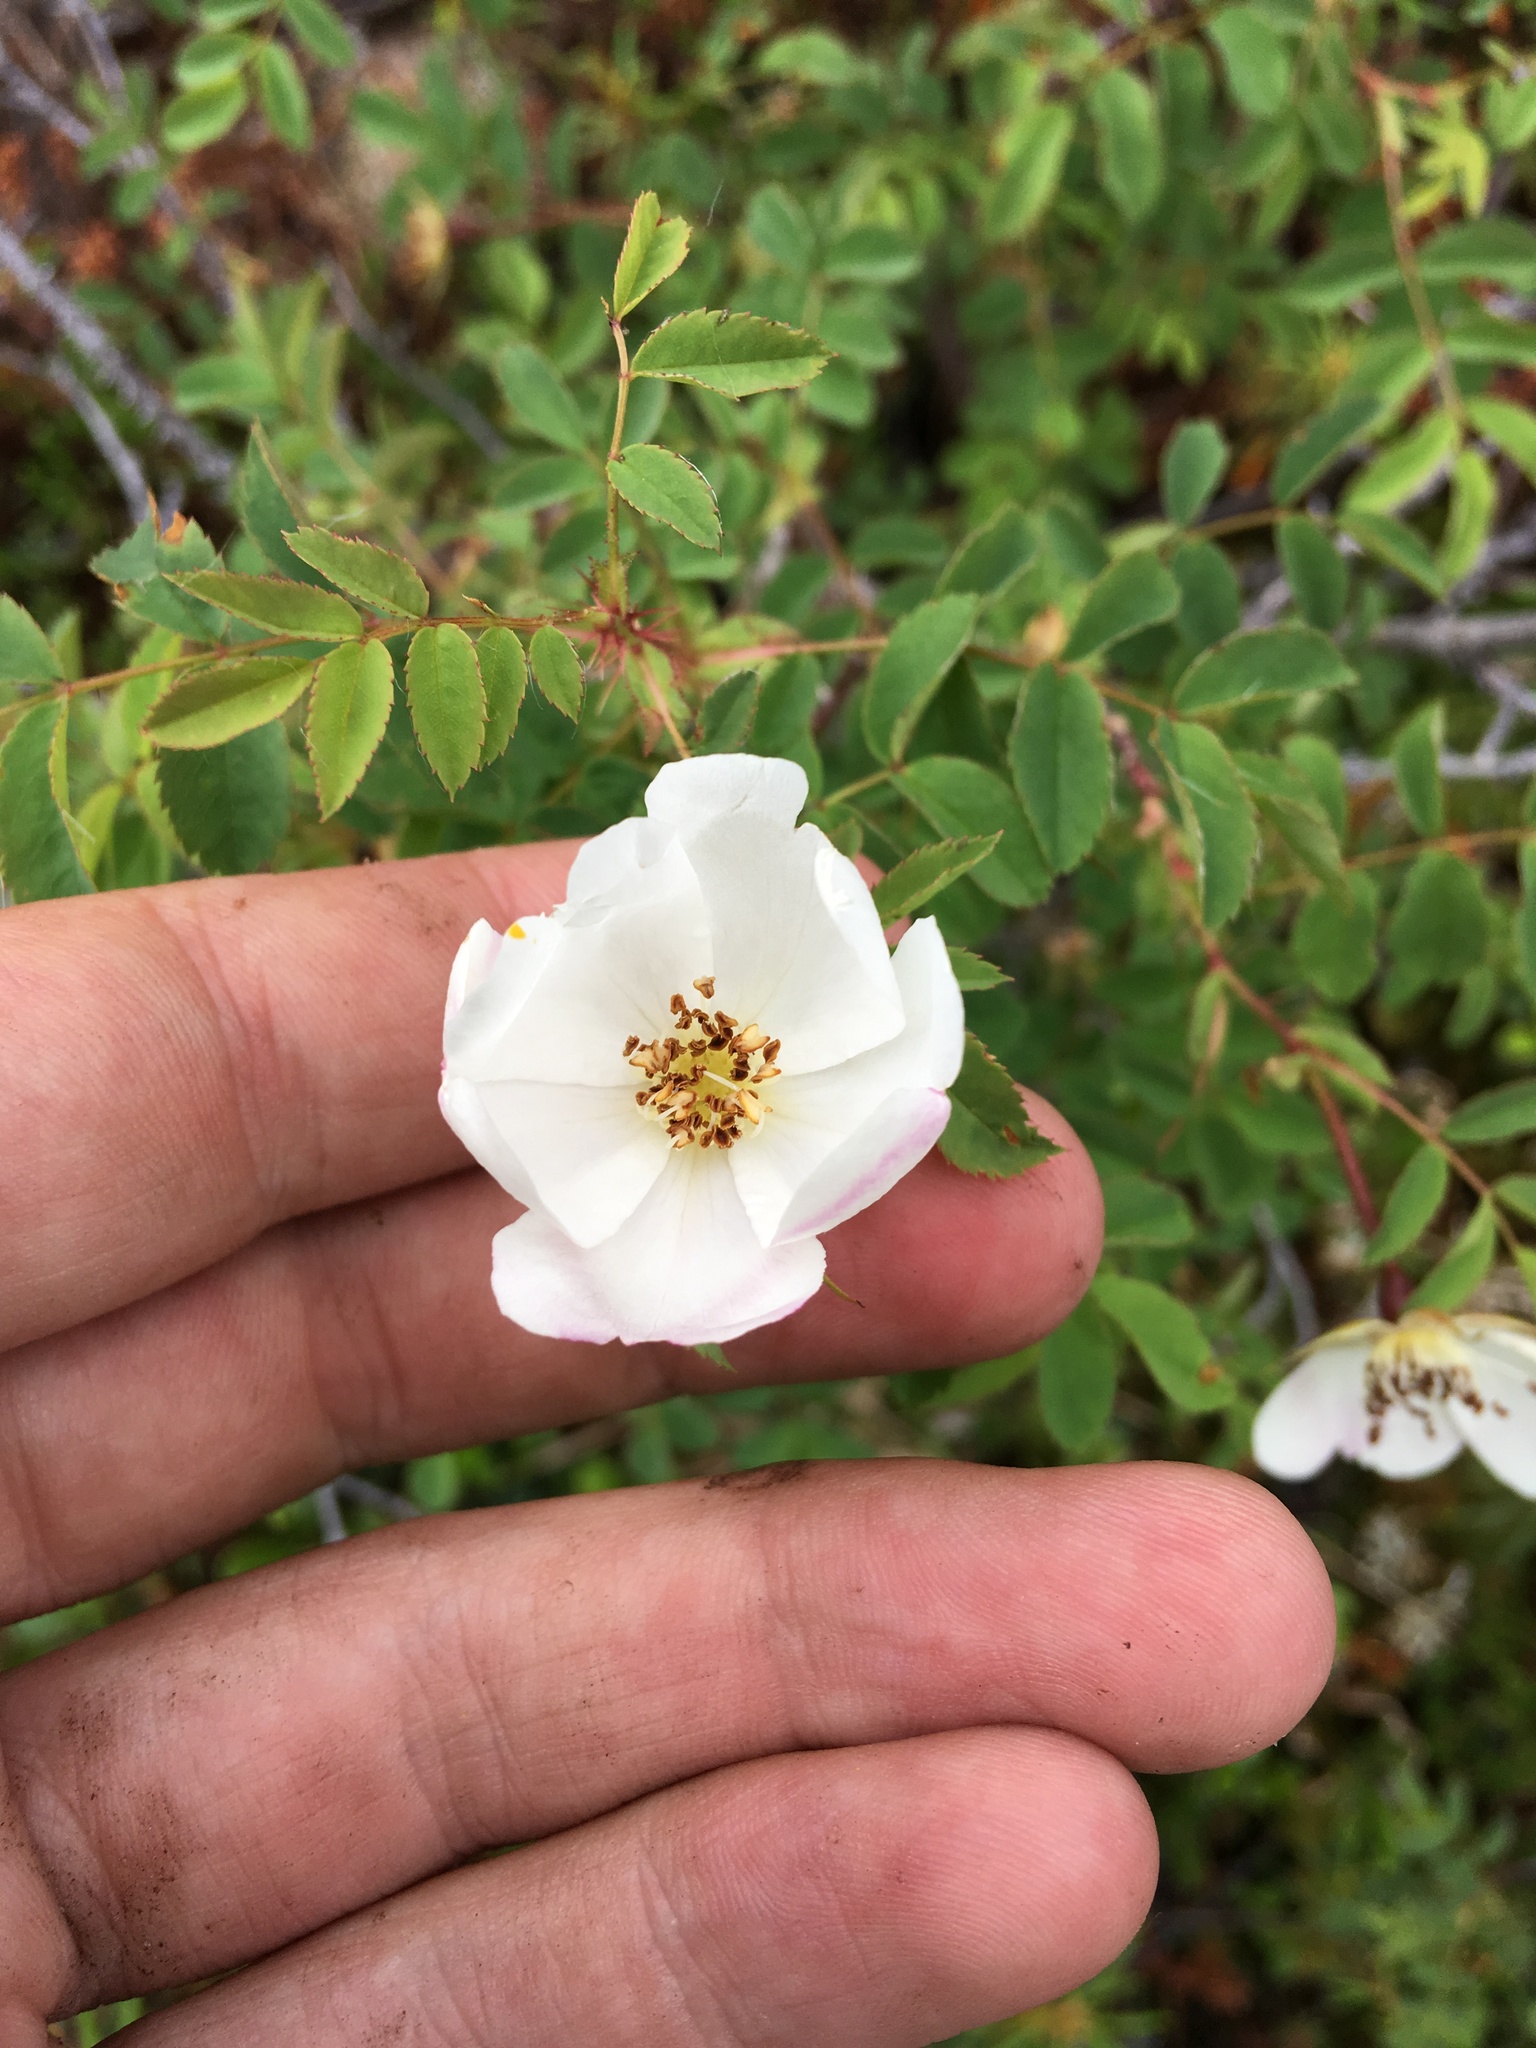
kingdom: Plantae
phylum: Tracheophyta
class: Magnoliopsida
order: Rosales
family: Rosaceae
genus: Rosa
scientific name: Rosa oxyacantha
